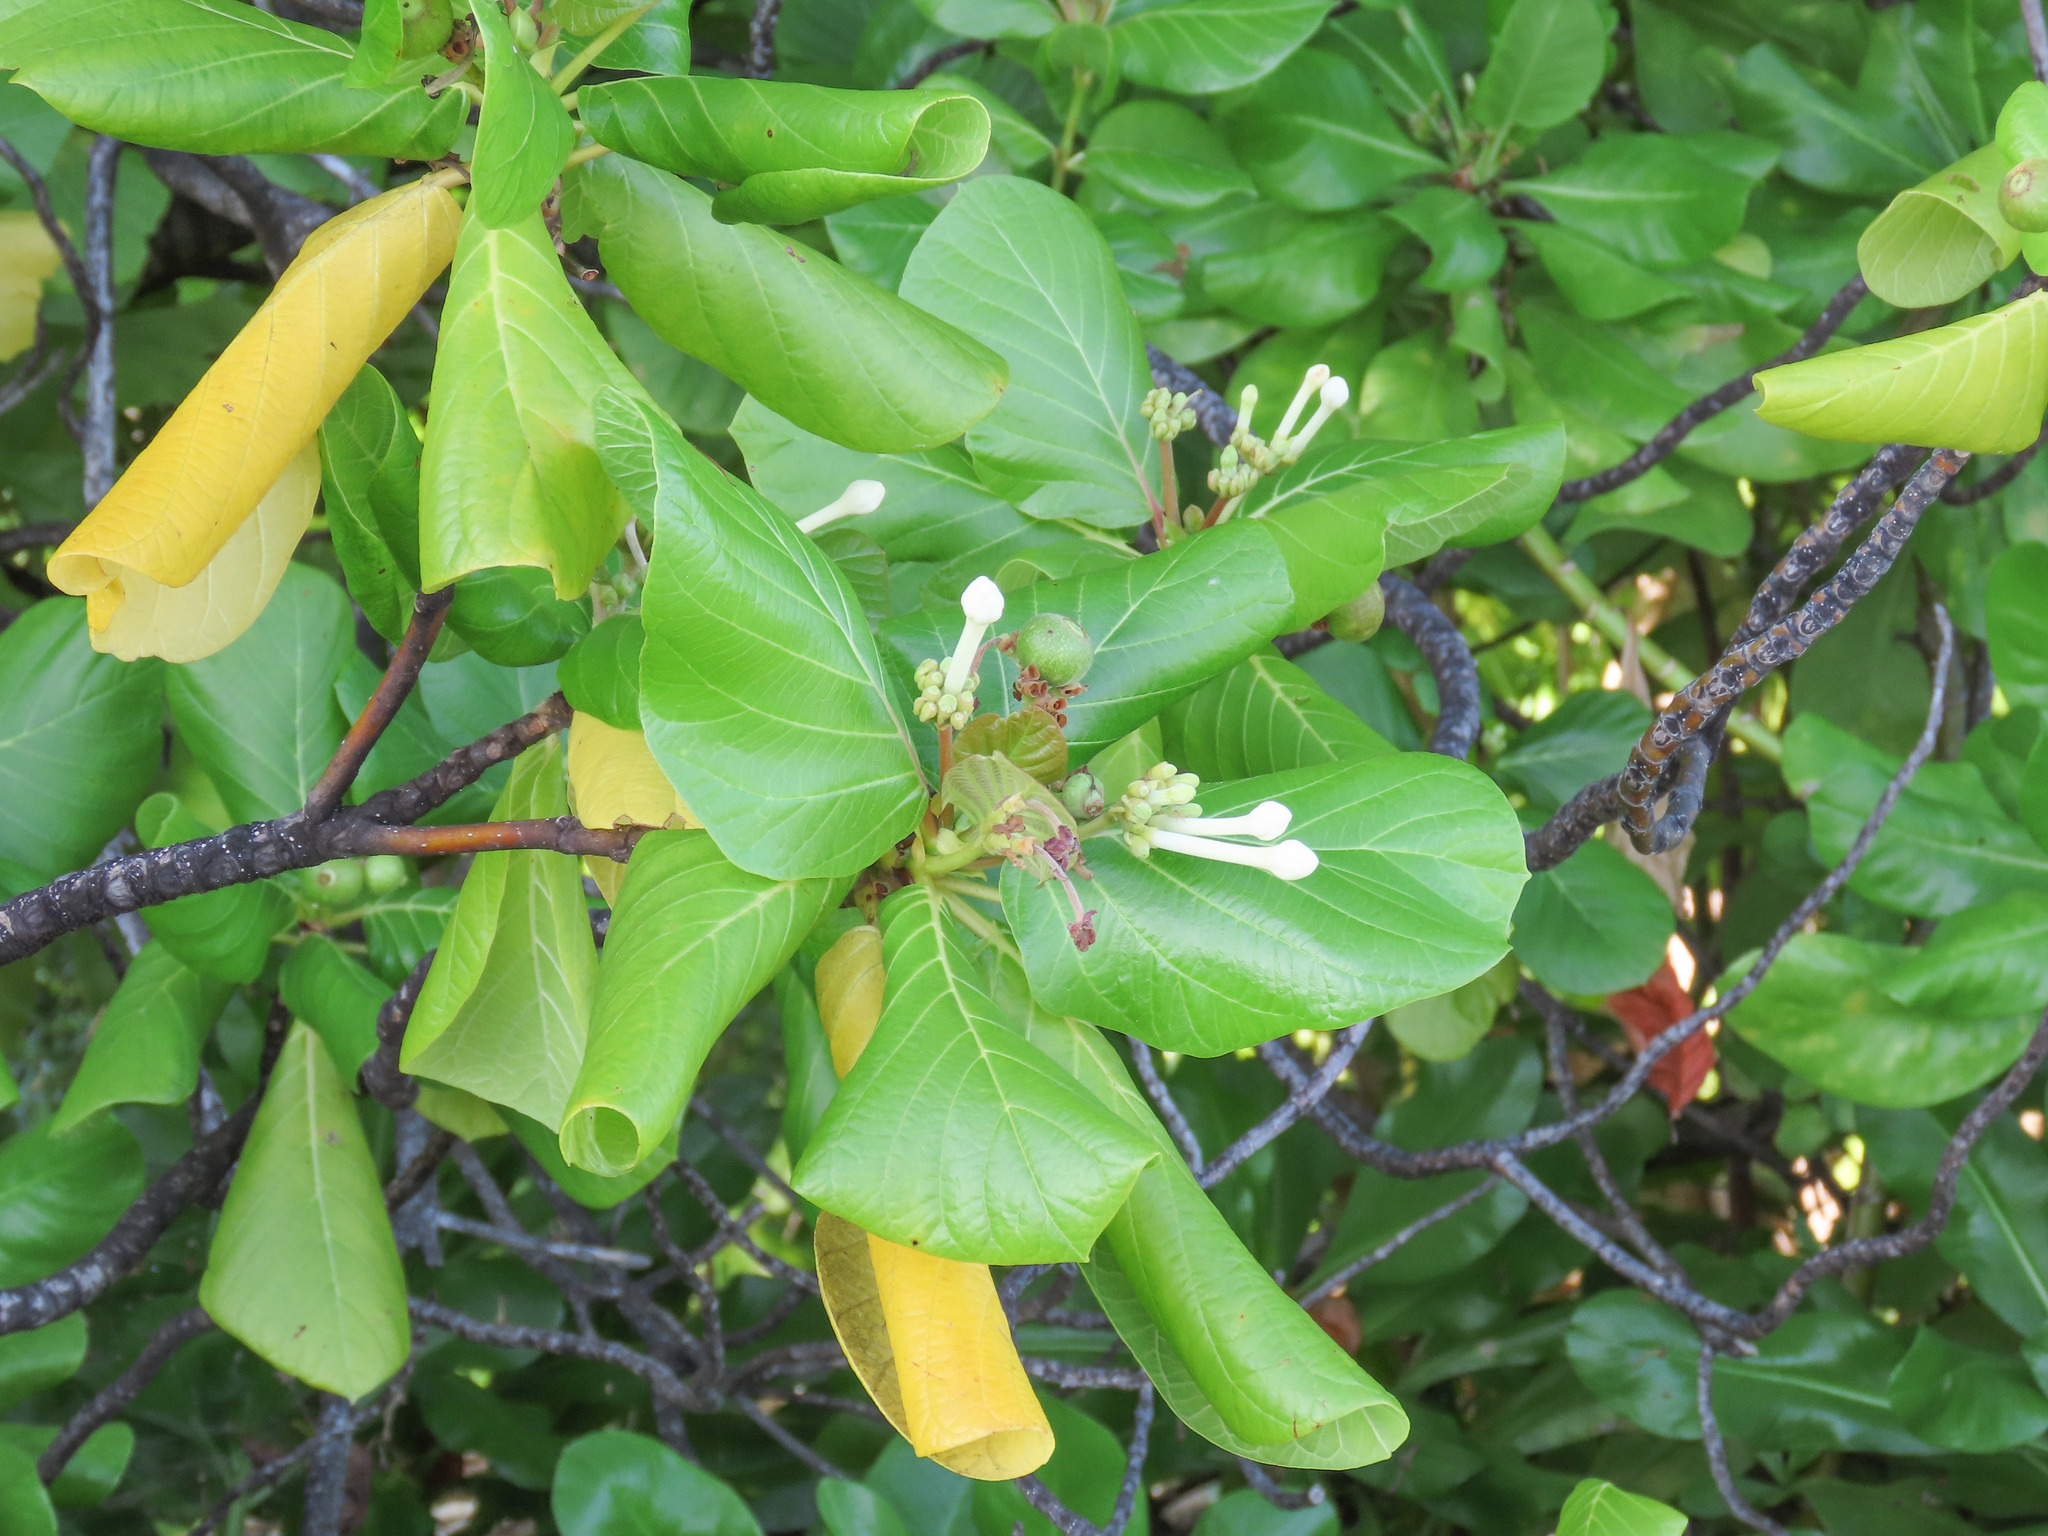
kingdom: Plantae
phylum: Tracheophyta
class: Magnoliopsida
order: Gentianales
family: Rubiaceae
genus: Guettarda
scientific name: Guettarda speciosa
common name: Sea randa
